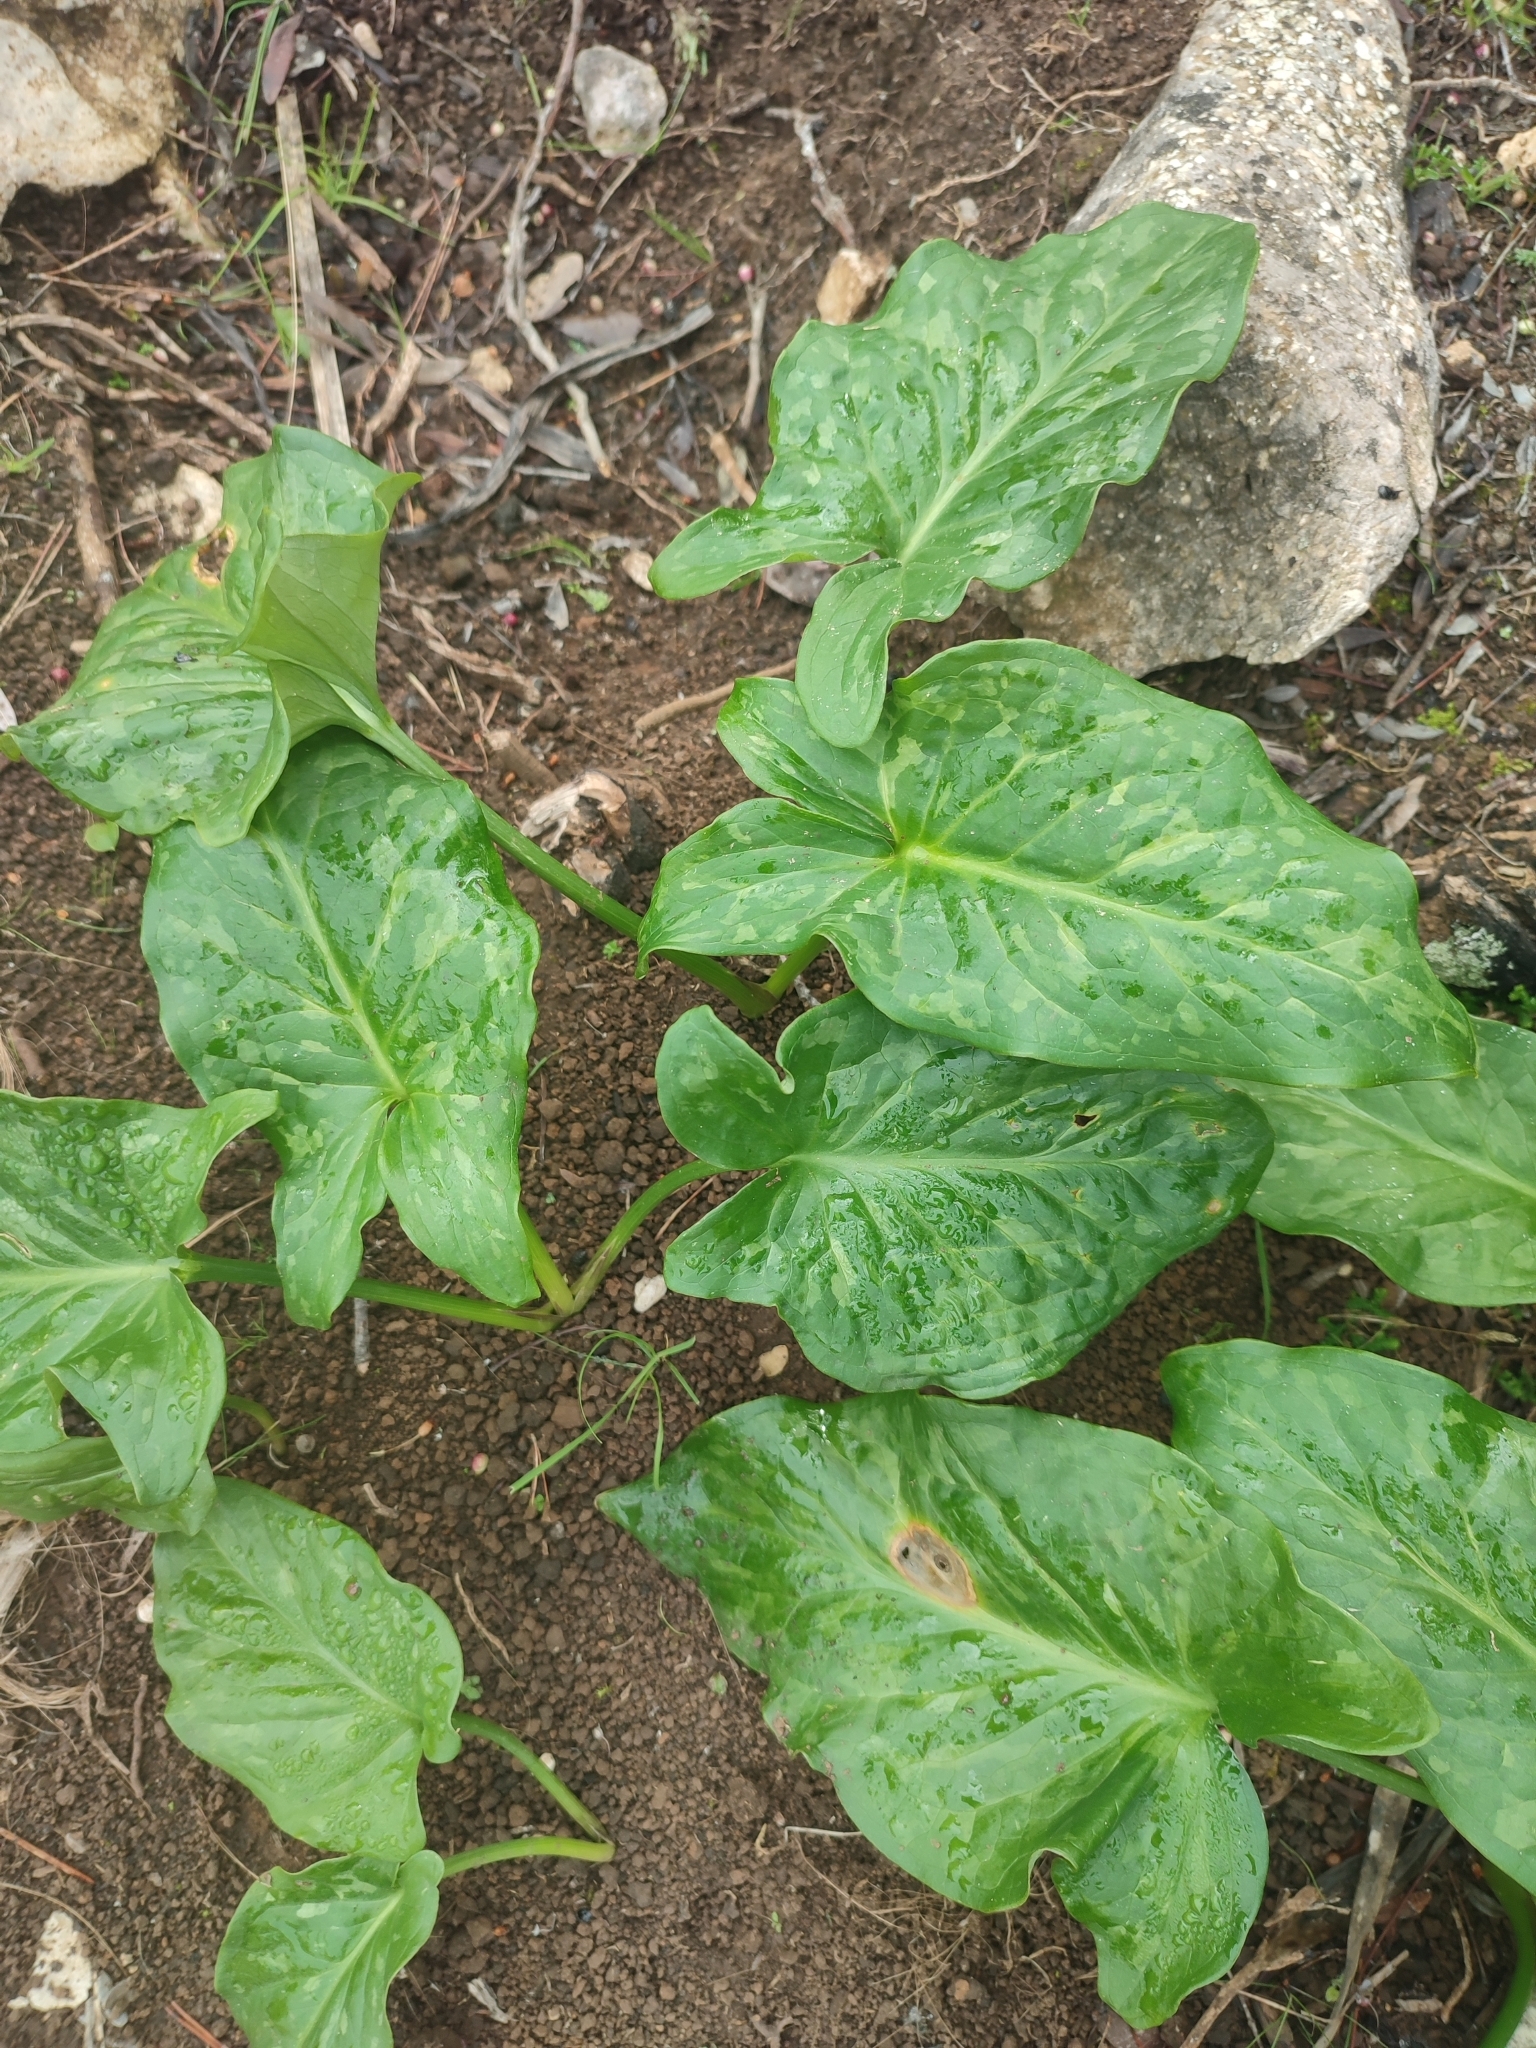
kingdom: Plantae
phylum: Tracheophyta
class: Liliopsida
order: Alismatales
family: Araceae
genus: Arum
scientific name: Arum italicum
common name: Italian lords-and-ladies
